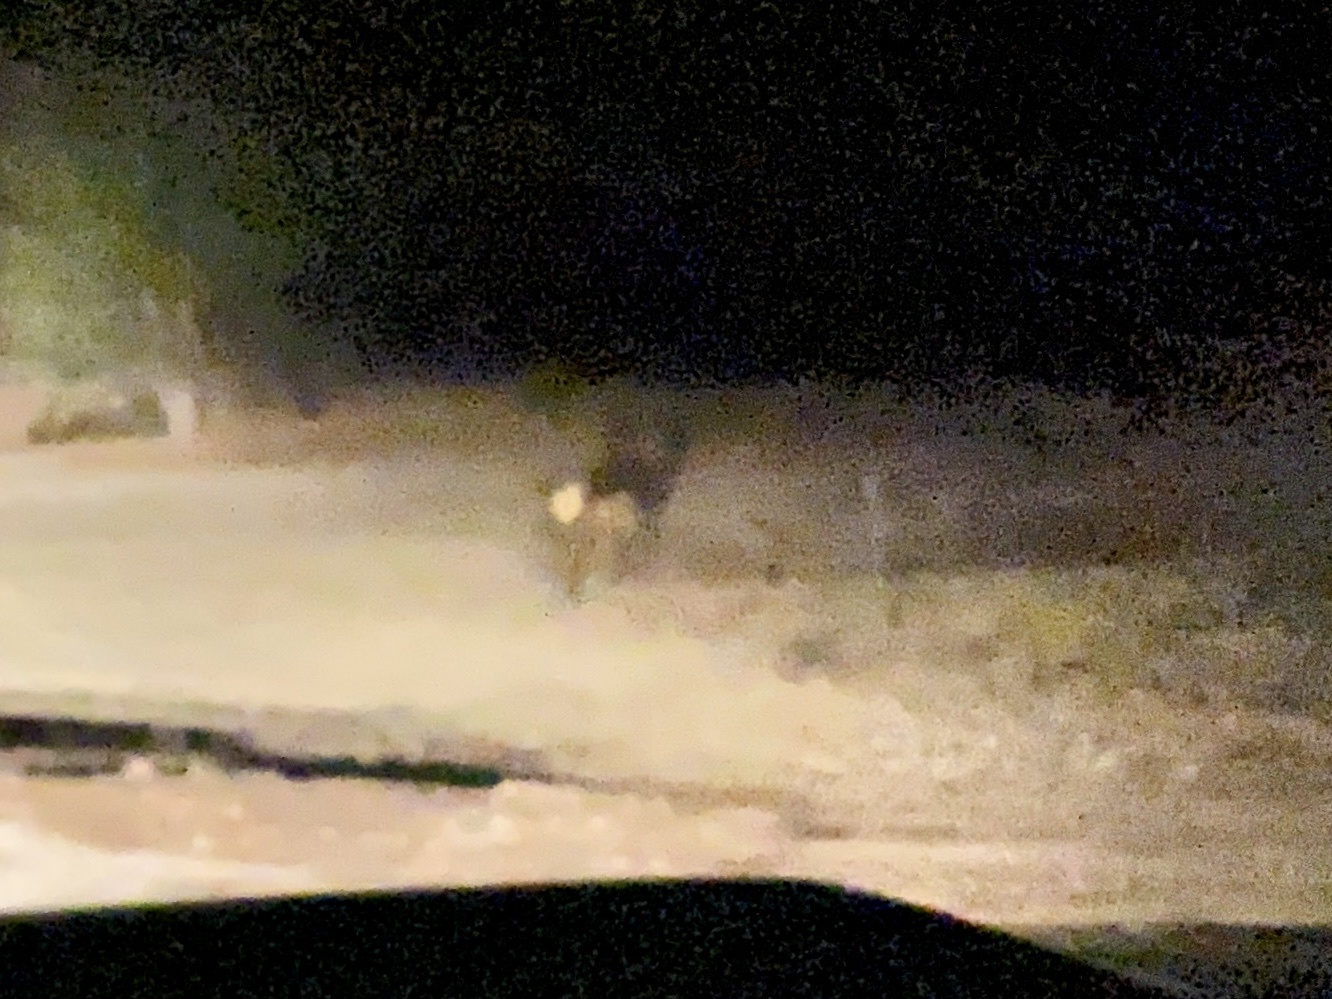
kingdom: Animalia
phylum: Chordata
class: Mammalia
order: Artiodactyla
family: Cervidae
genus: Cervus
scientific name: Cervus elaphus
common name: Red deer
